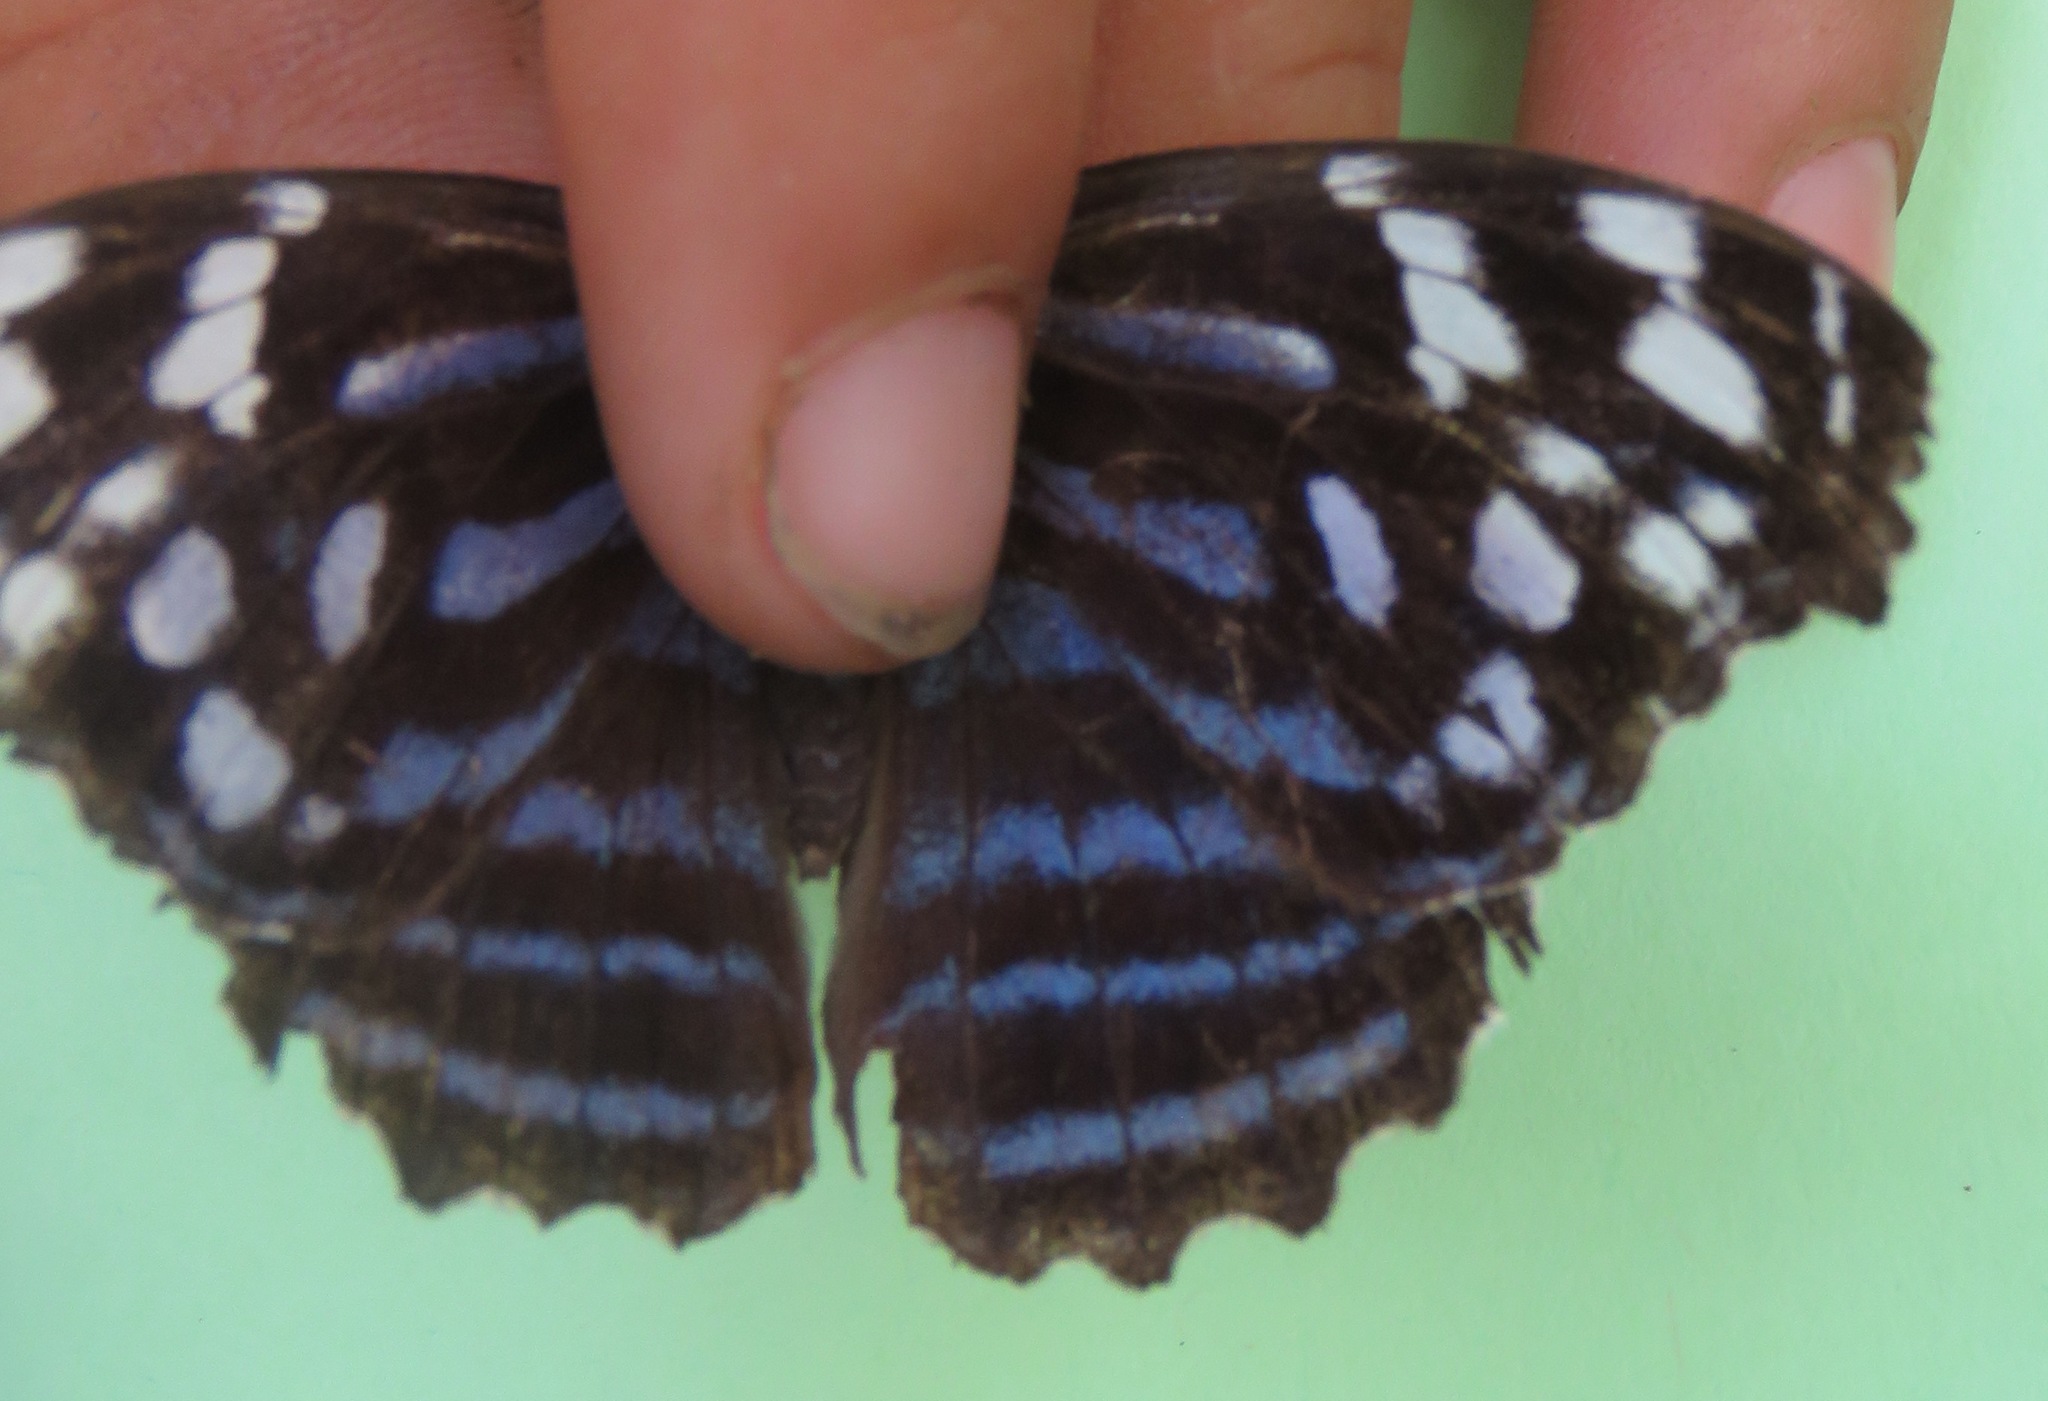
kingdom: Animalia
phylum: Arthropoda
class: Insecta
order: Lepidoptera
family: Nymphalidae
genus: Myscelia
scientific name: Myscelia ethusa
